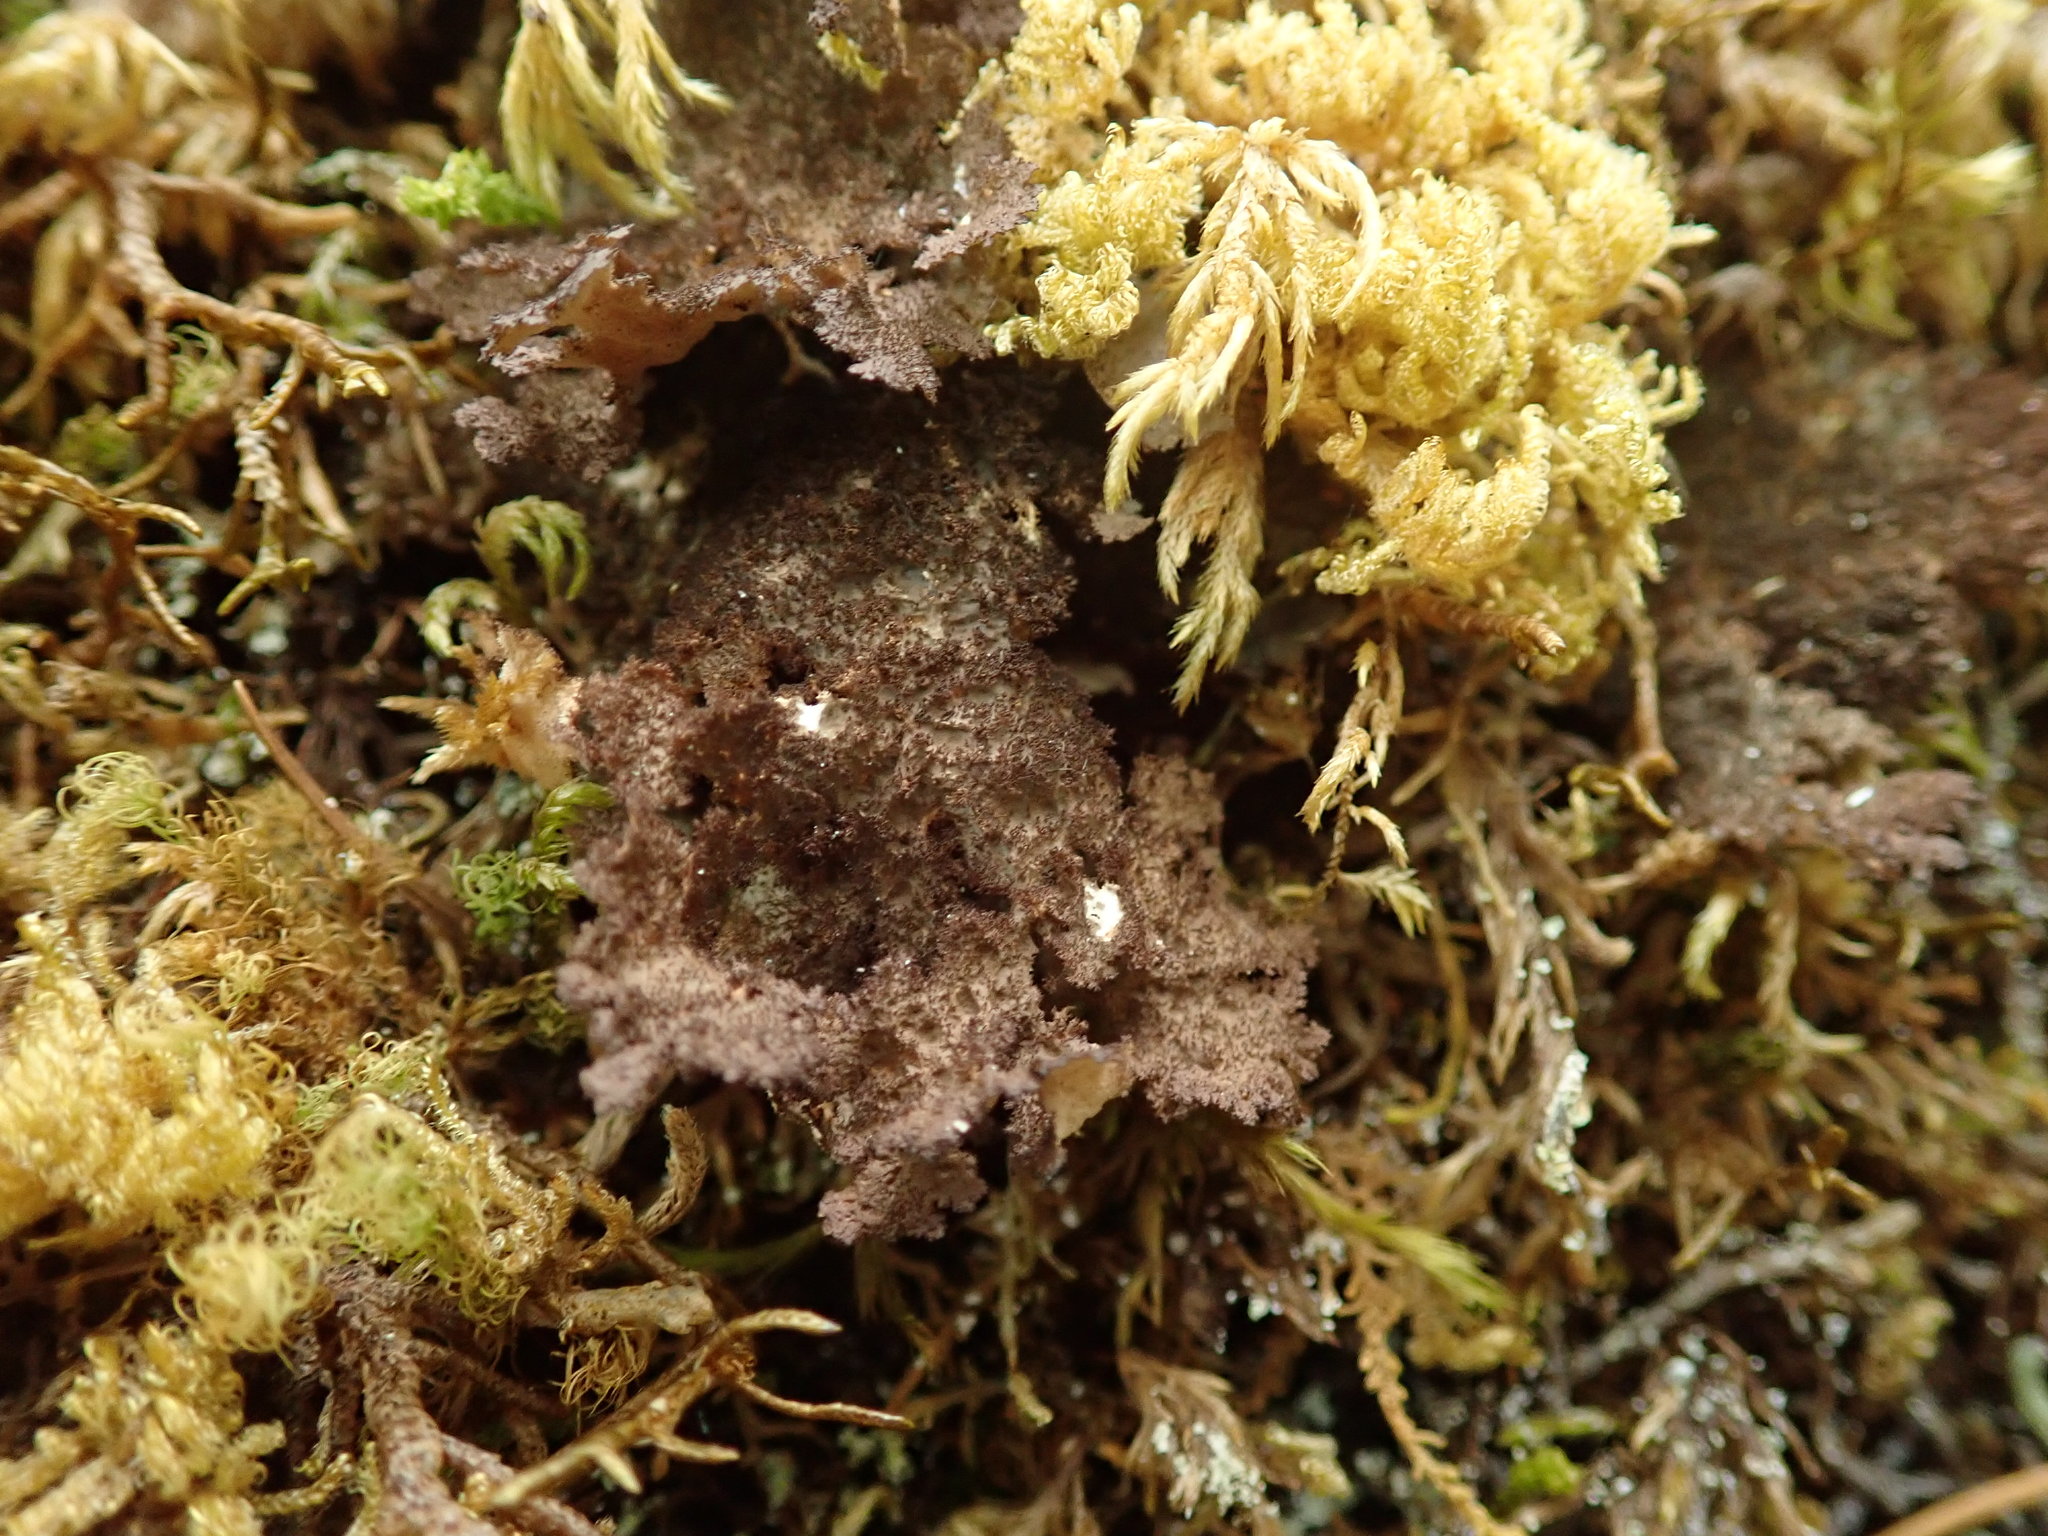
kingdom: Fungi
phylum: Ascomycota
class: Lecanoromycetes
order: Peltigerales
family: Lobariaceae
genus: Sticta
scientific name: Sticta fuliginosa
